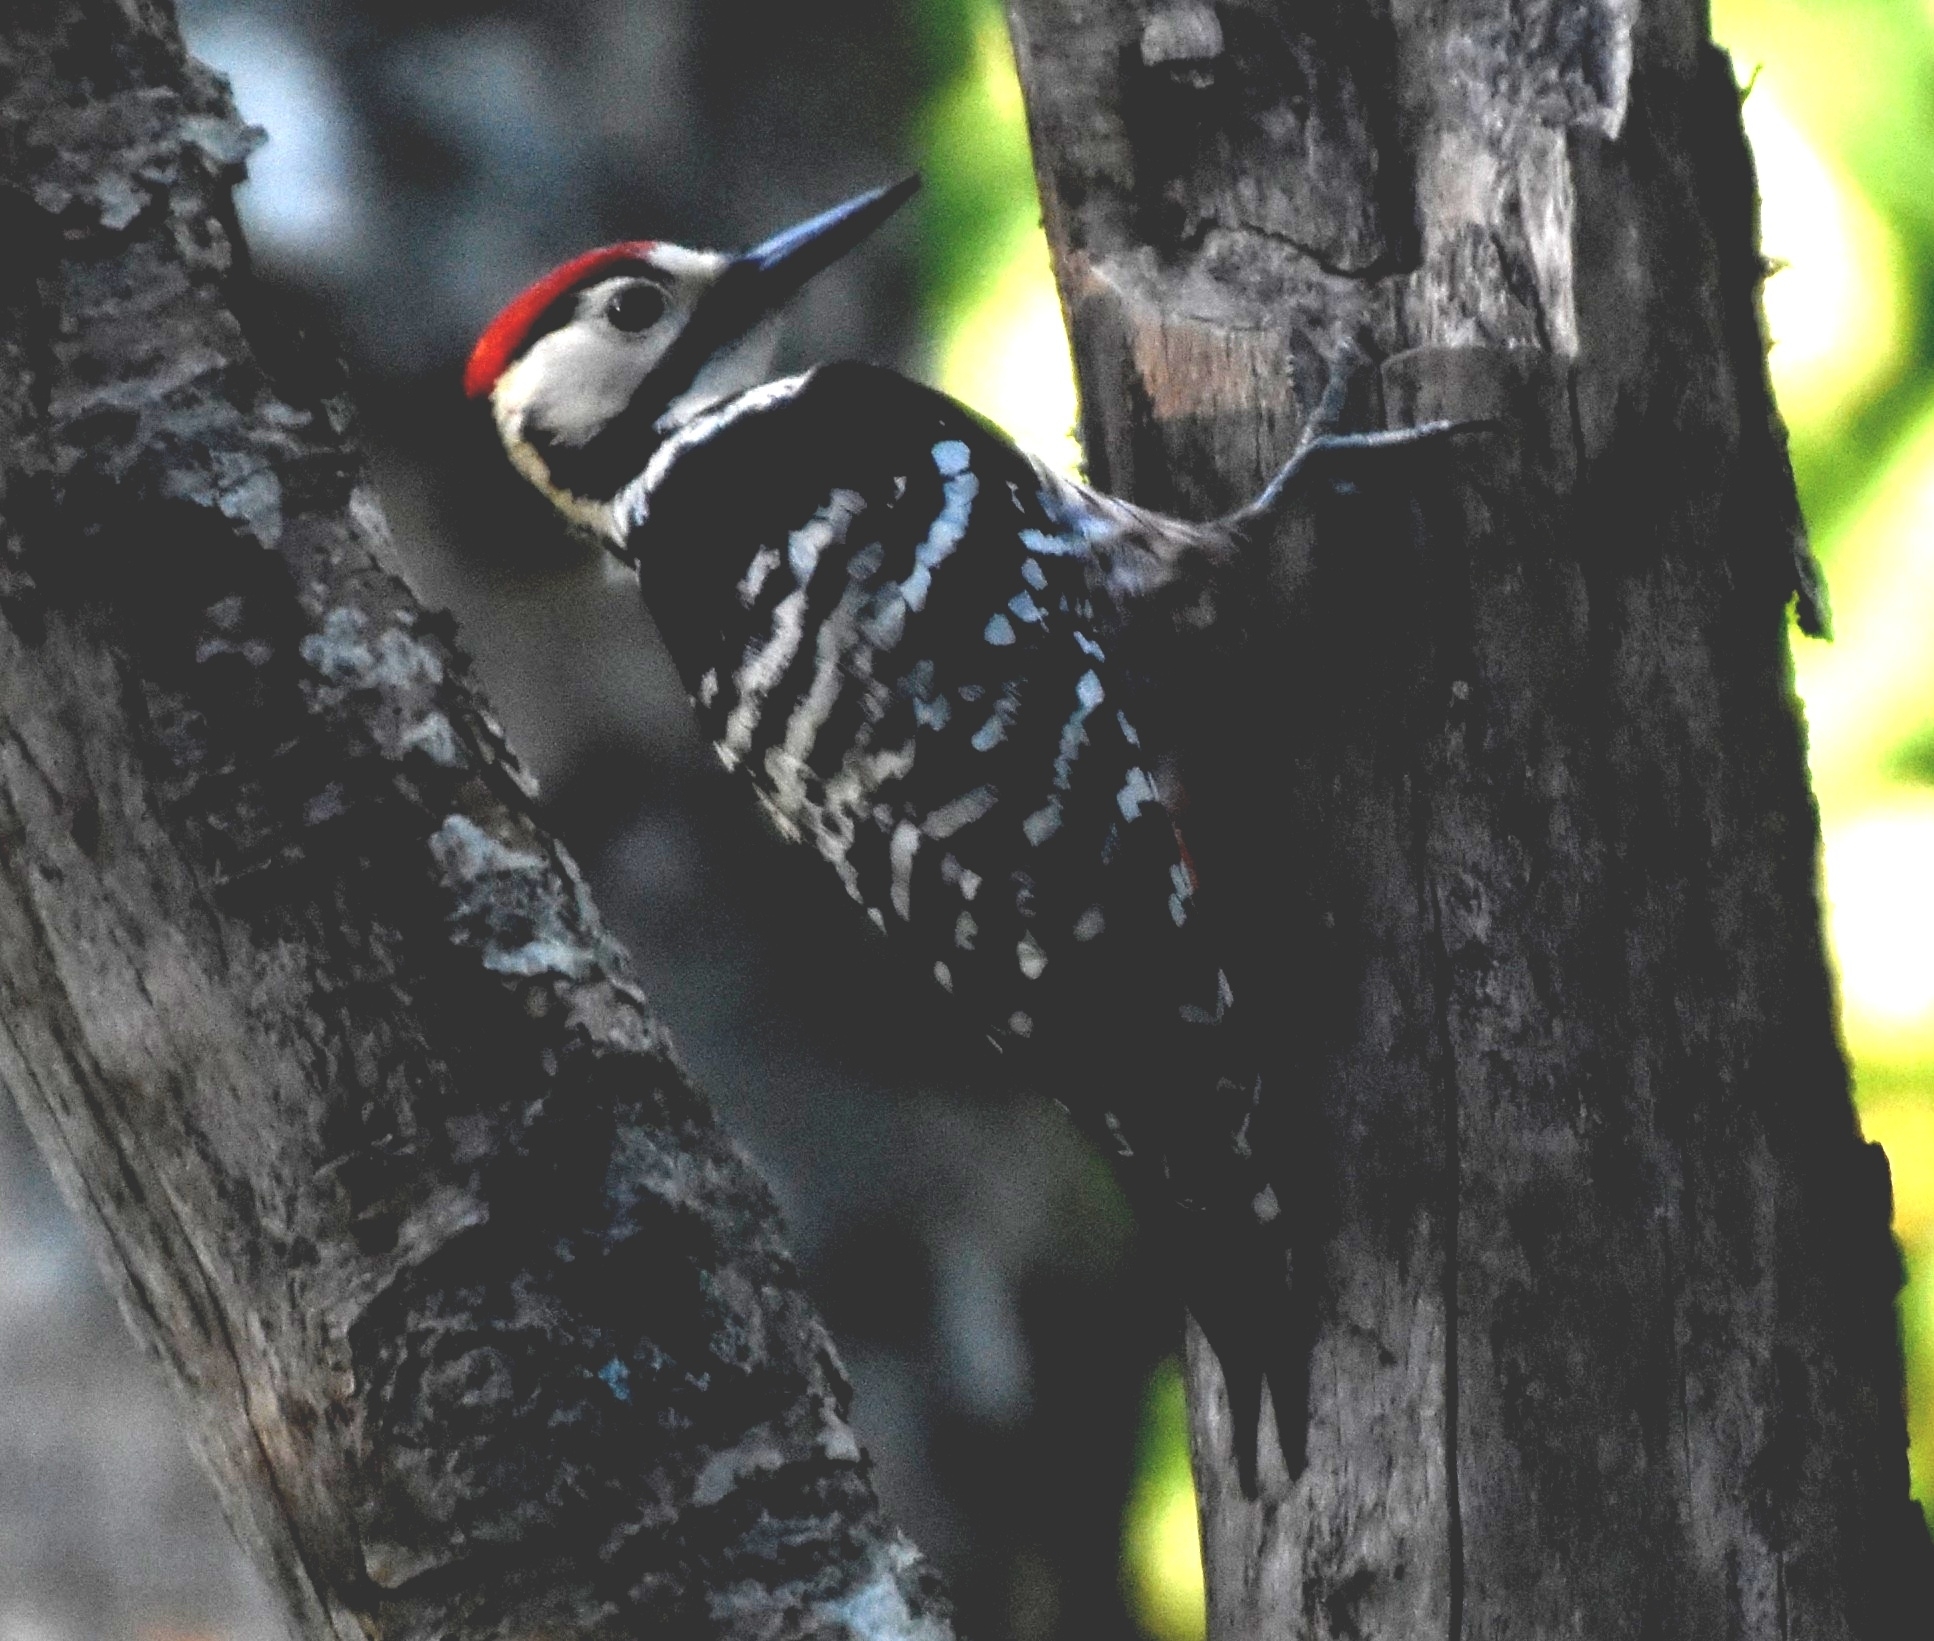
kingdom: Animalia
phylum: Chordata
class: Aves
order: Piciformes
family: Picidae
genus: Dendrocopos
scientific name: Dendrocopos leucotos
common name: White-backed woodpecker
